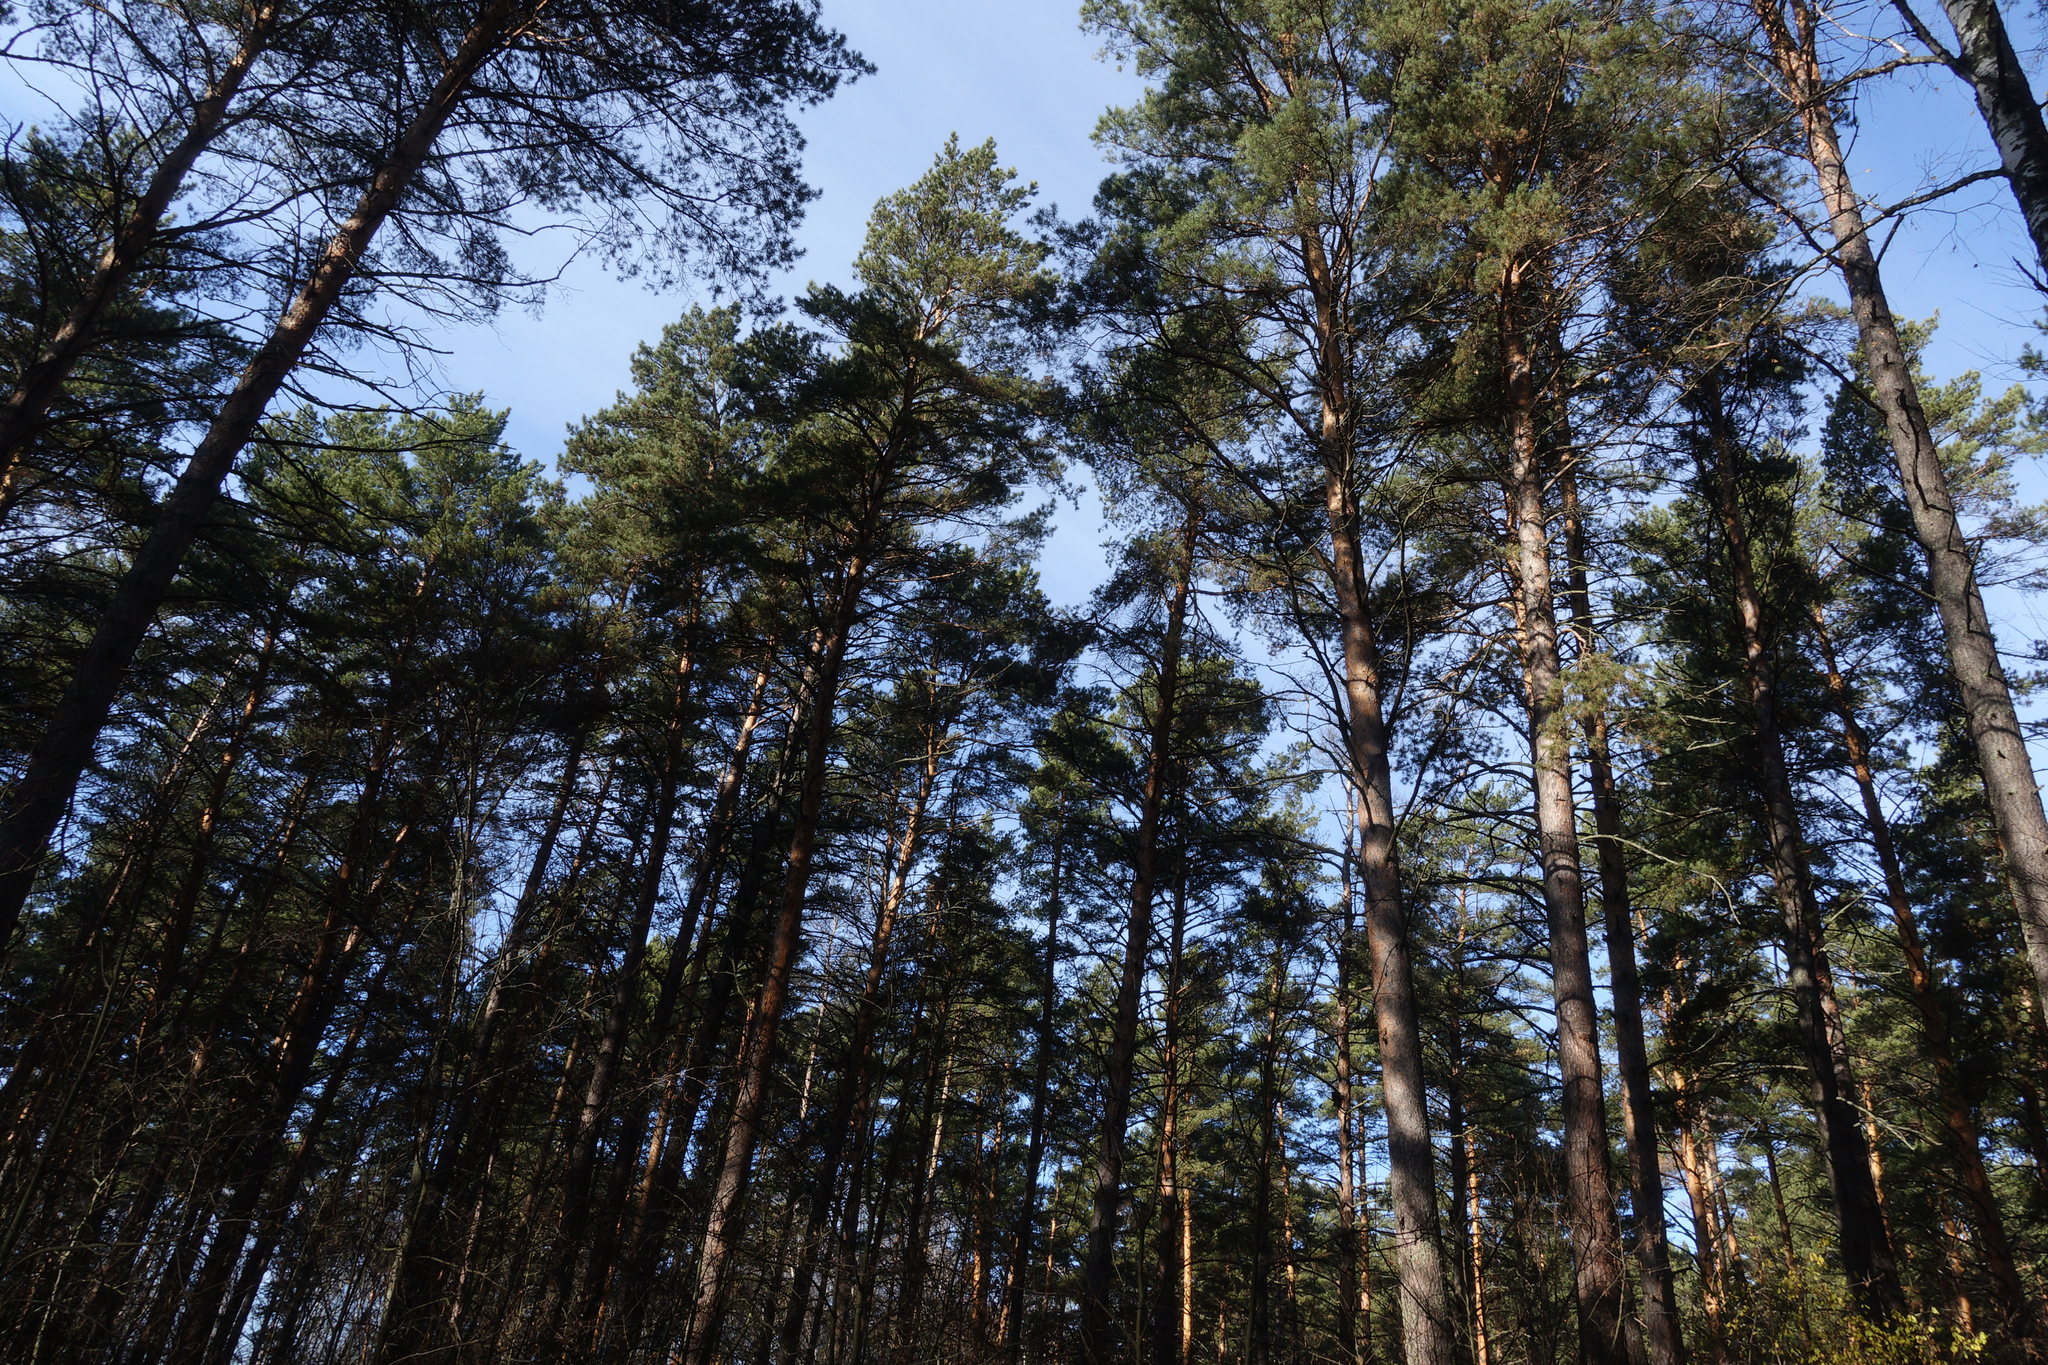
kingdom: Plantae
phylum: Tracheophyta
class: Pinopsida
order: Pinales
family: Pinaceae
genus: Pinus
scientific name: Pinus sylvestris
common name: Scots pine
